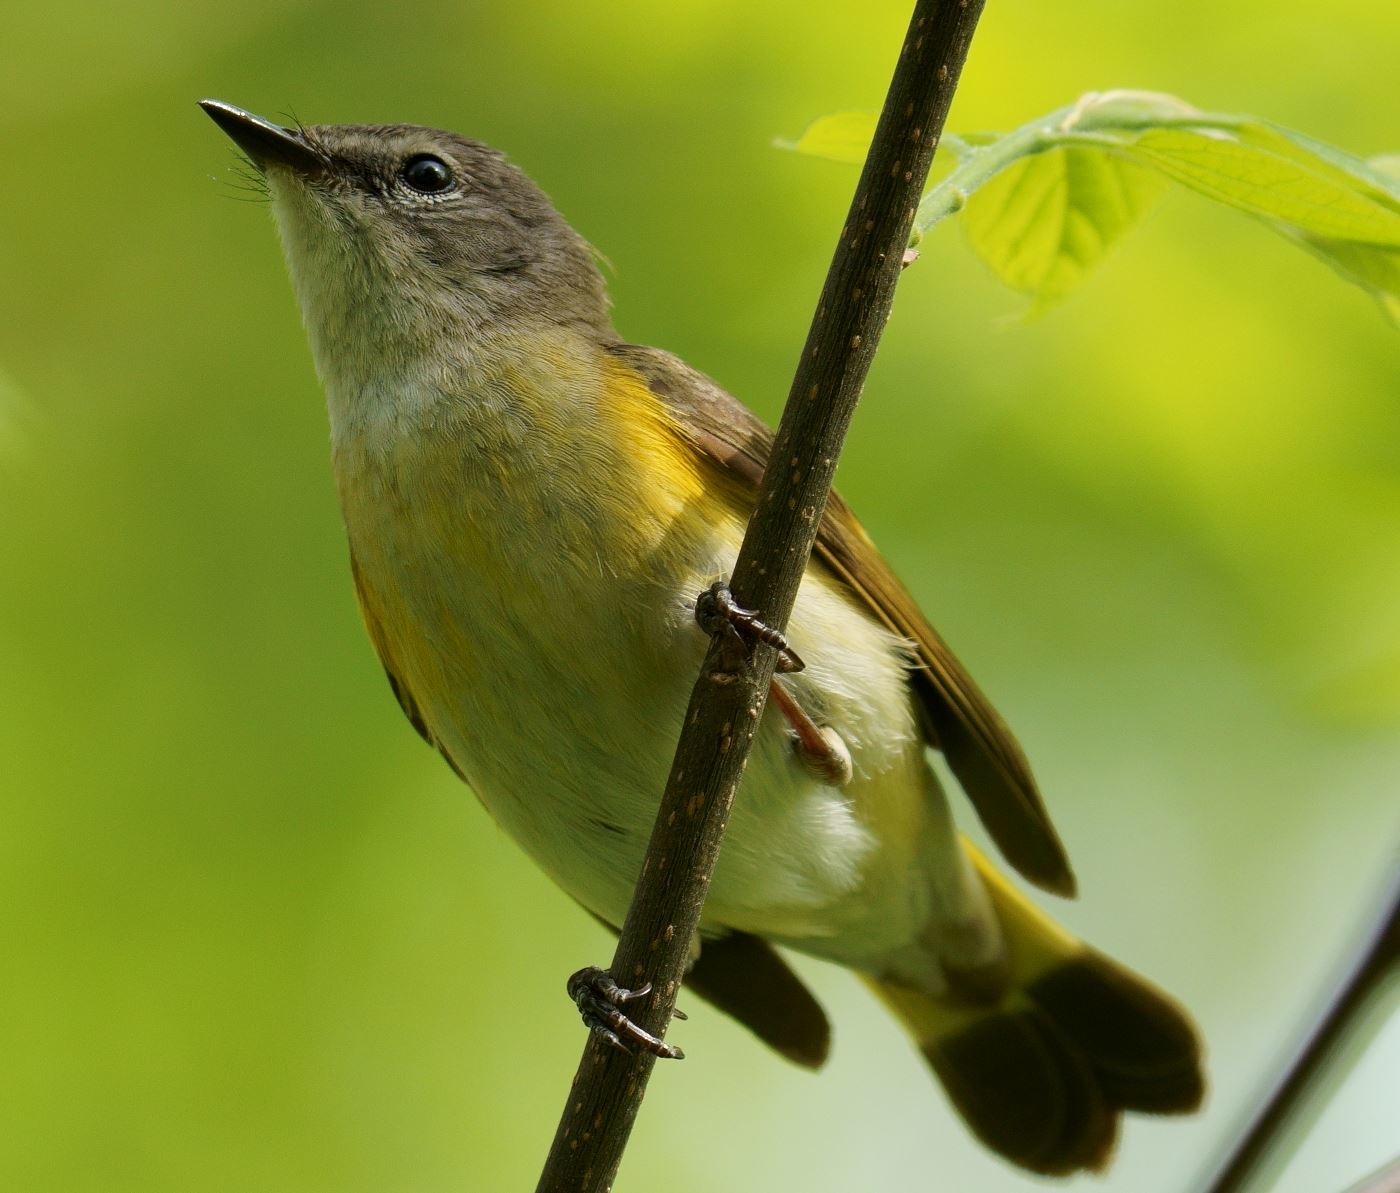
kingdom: Animalia
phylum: Chordata
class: Aves
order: Passeriformes
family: Parulidae
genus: Setophaga
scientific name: Setophaga ruticilla
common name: American redstart
